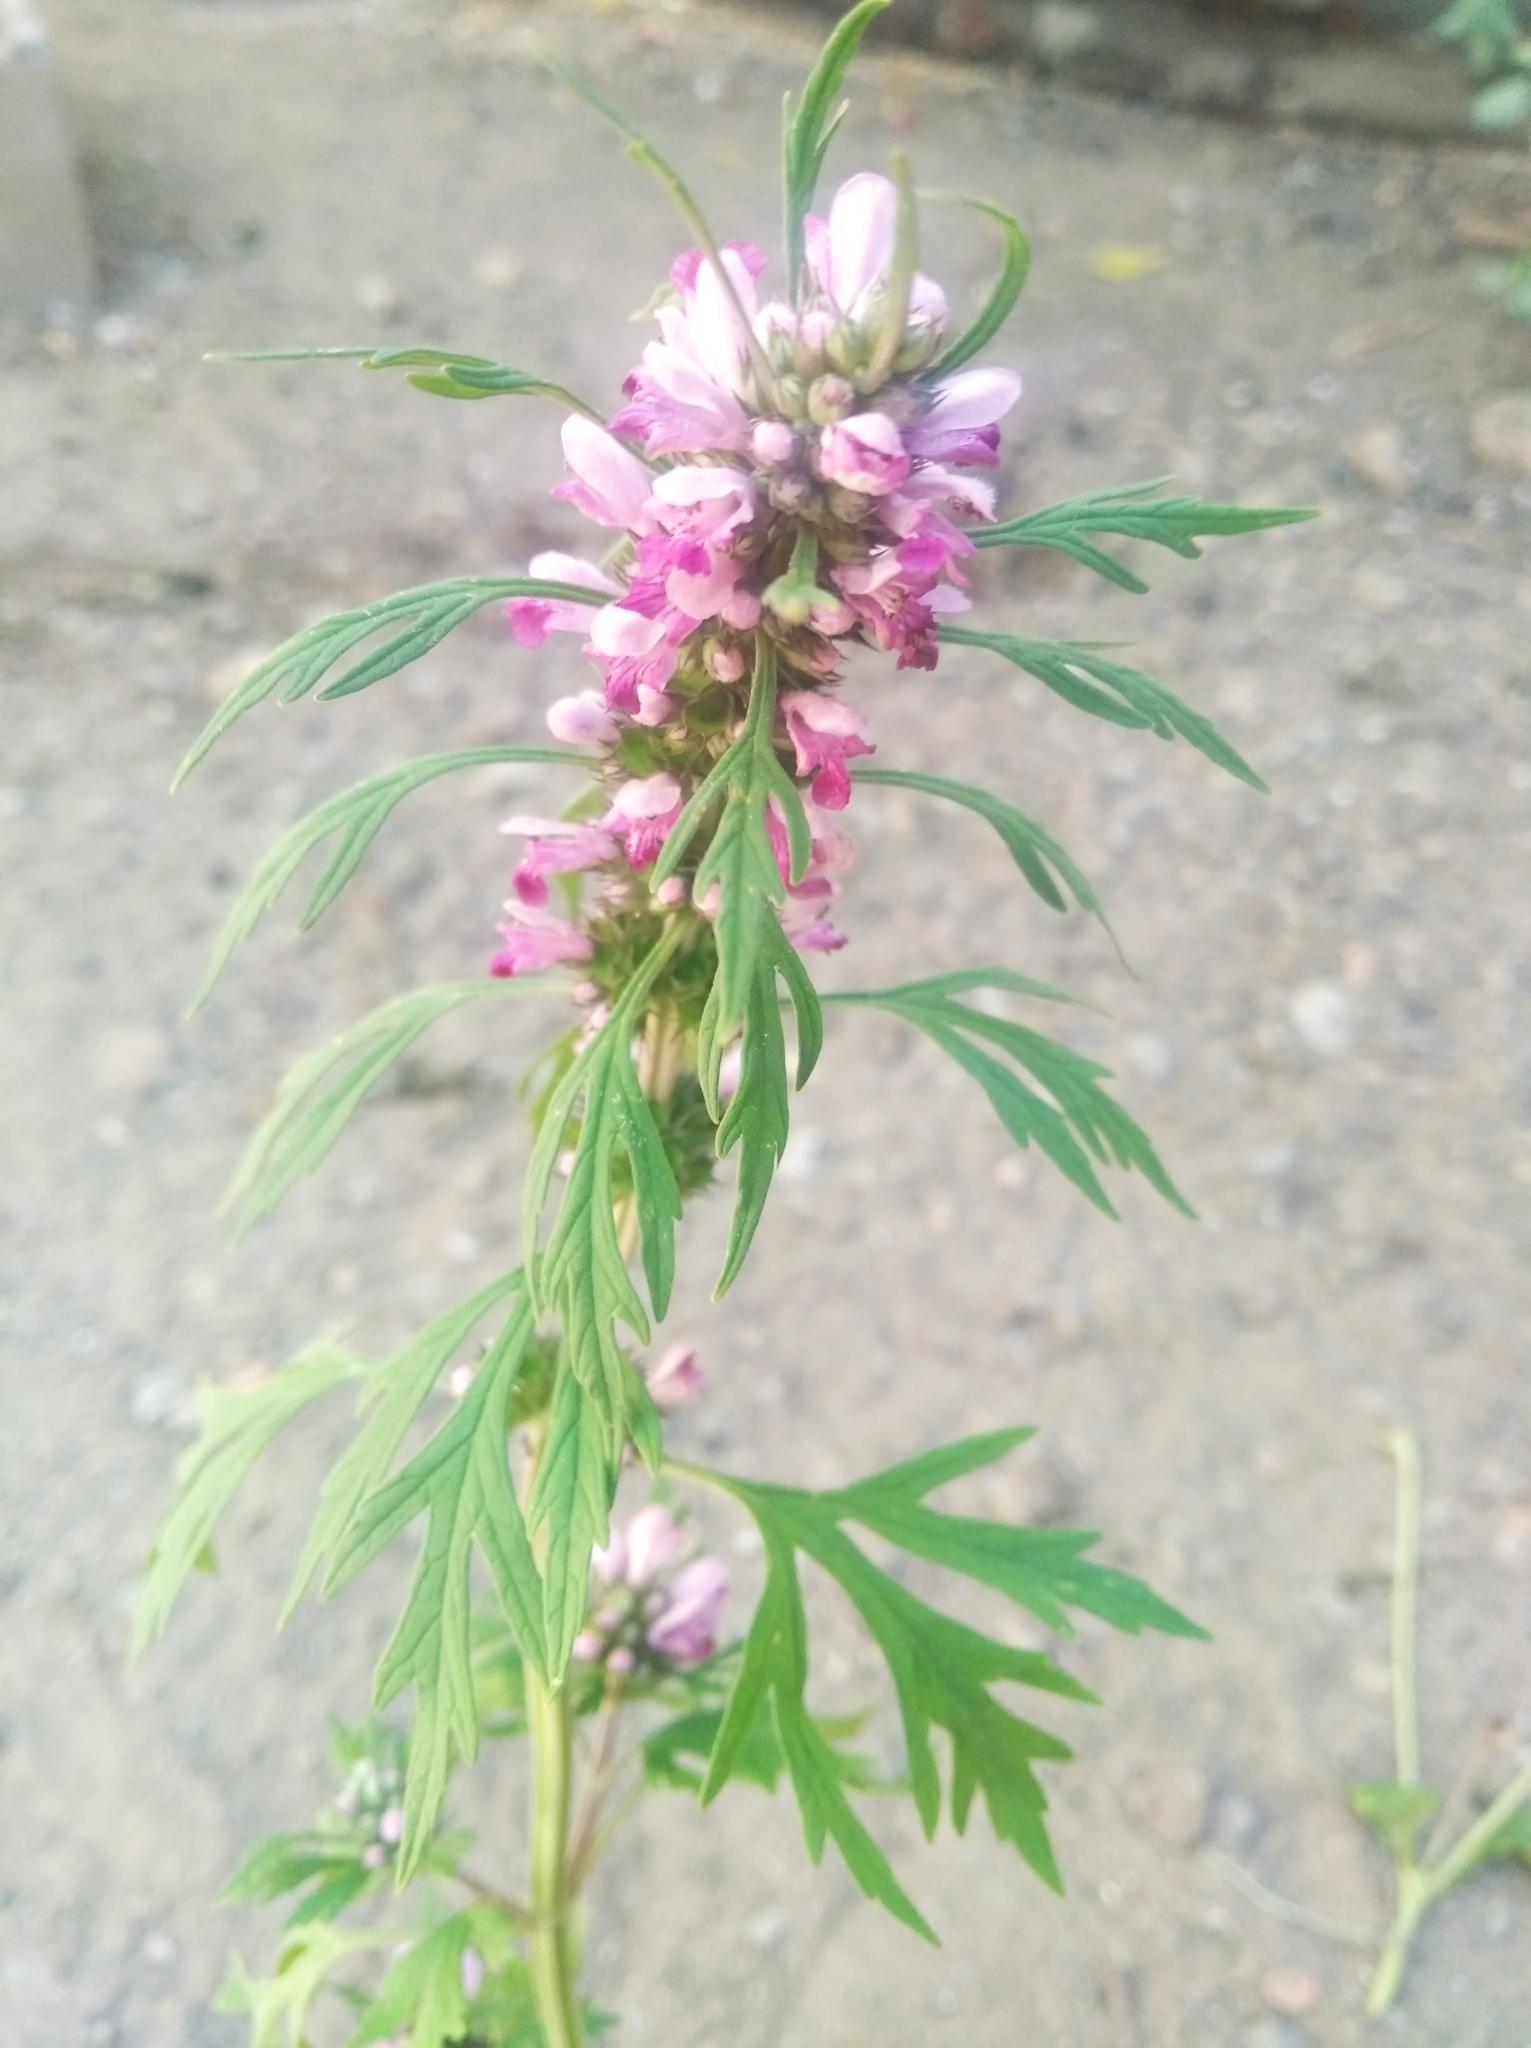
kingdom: Plantae
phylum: Tracheophyta
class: Magnoliopsida
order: Lamiales
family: Lamiaceae
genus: Leonurus
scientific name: Leonurus sibiricus
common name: Honeyweed
